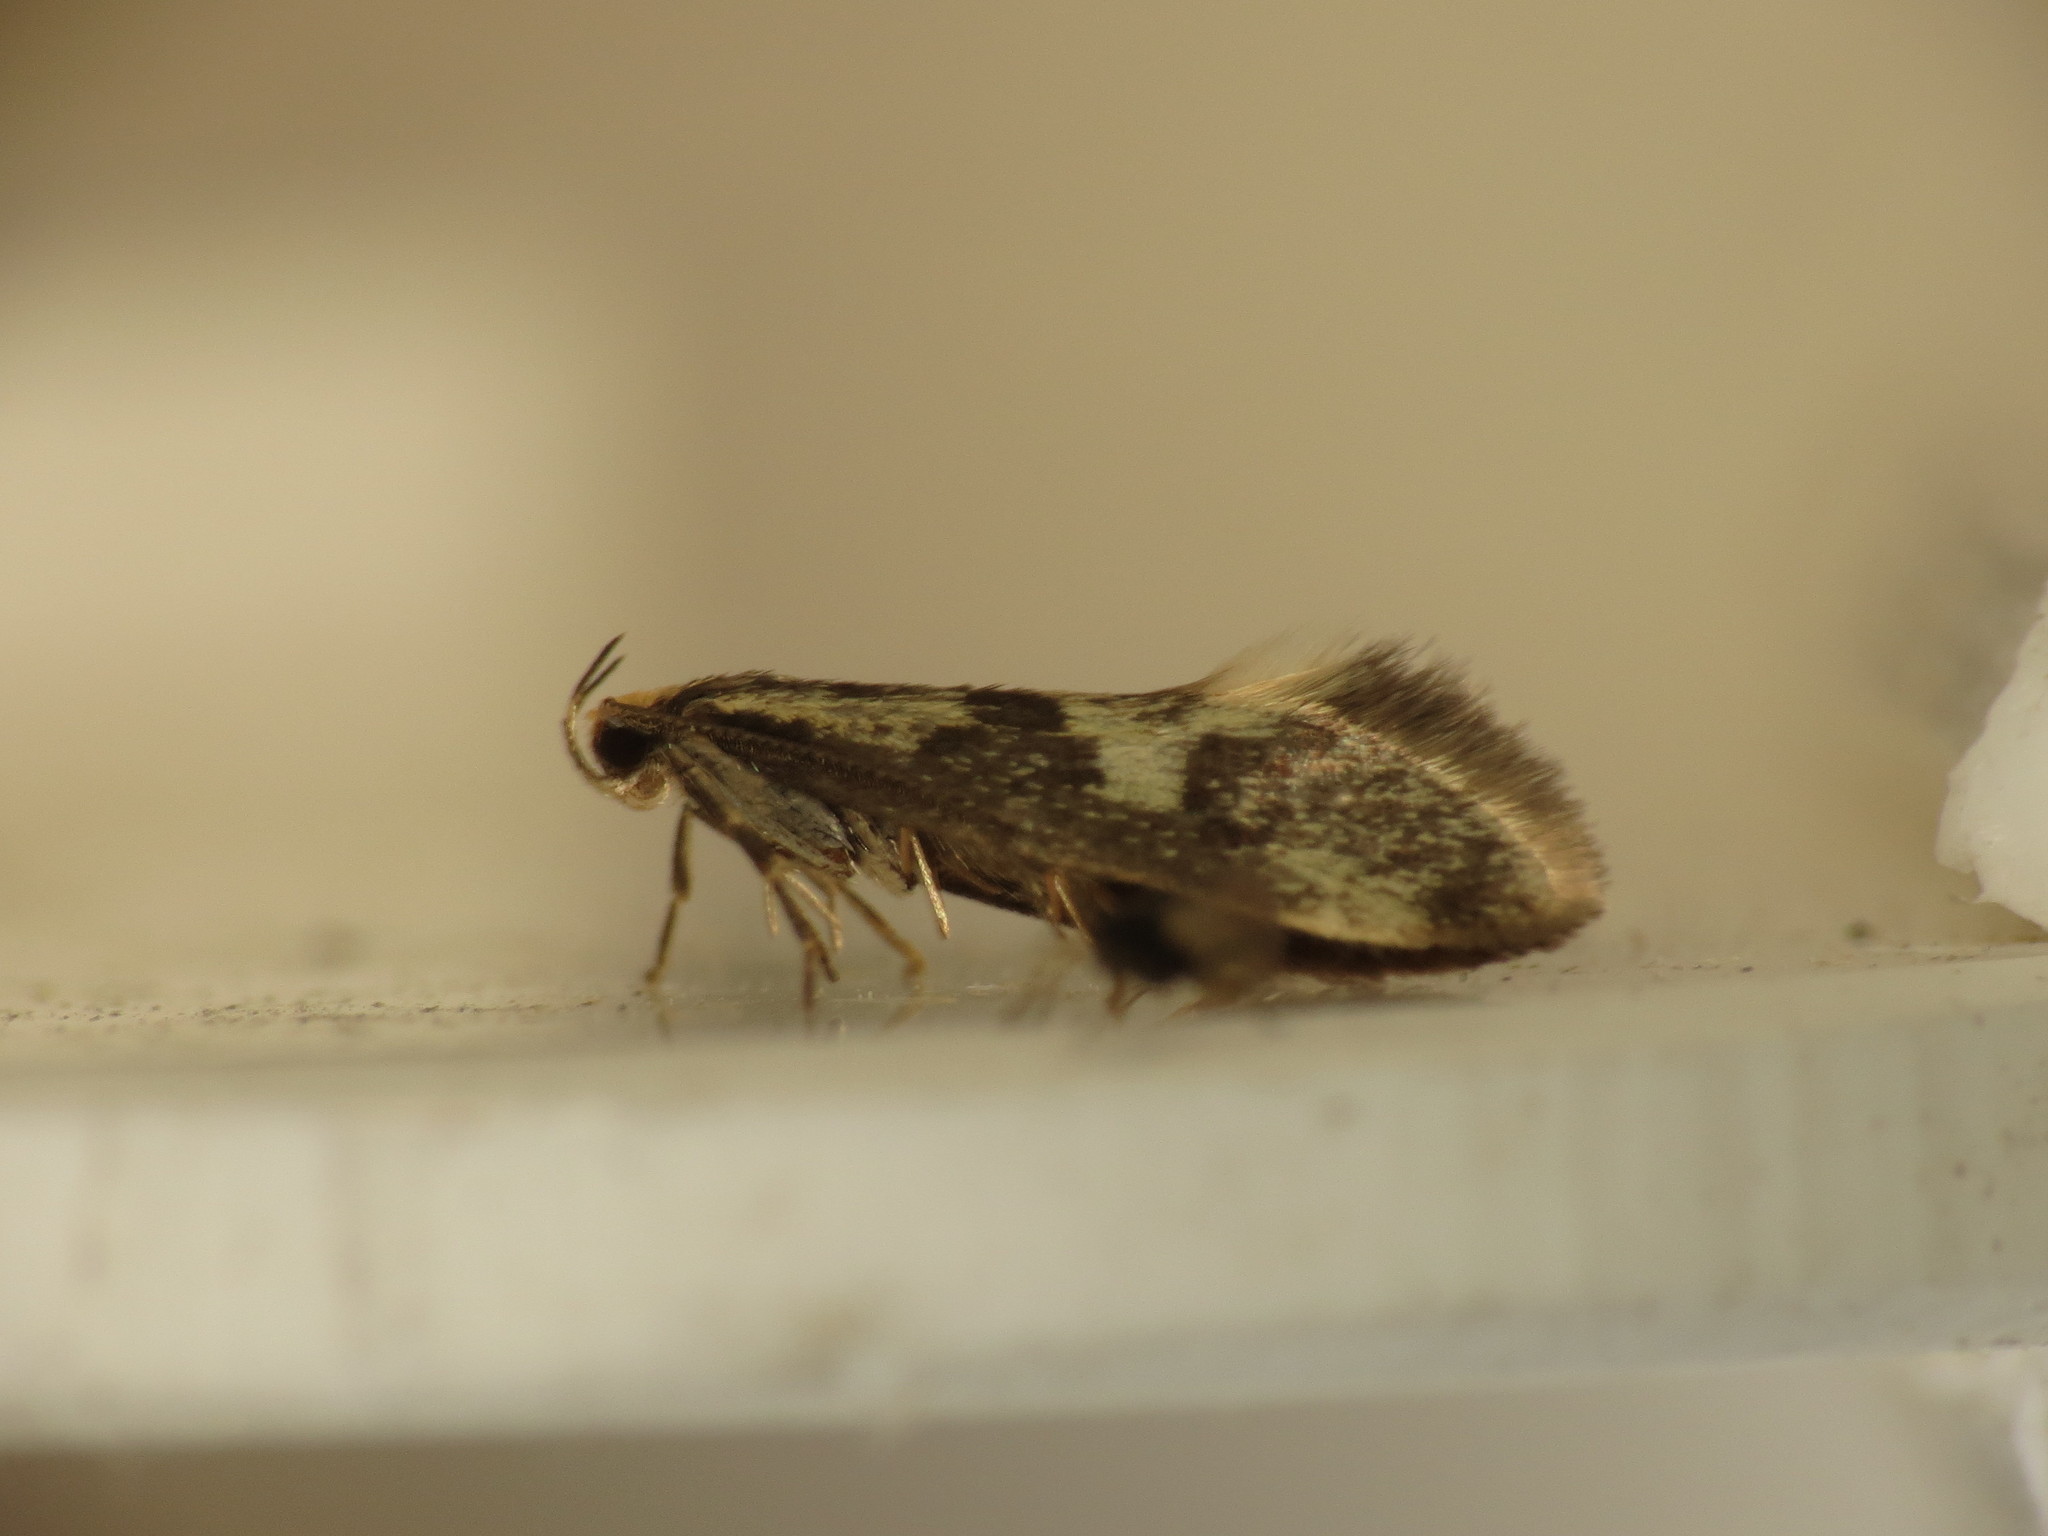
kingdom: Animalia
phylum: Arthropoda
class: Insecta
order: Lepidoptera
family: Oecophoridae
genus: Denisia
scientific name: Denisia stipella
